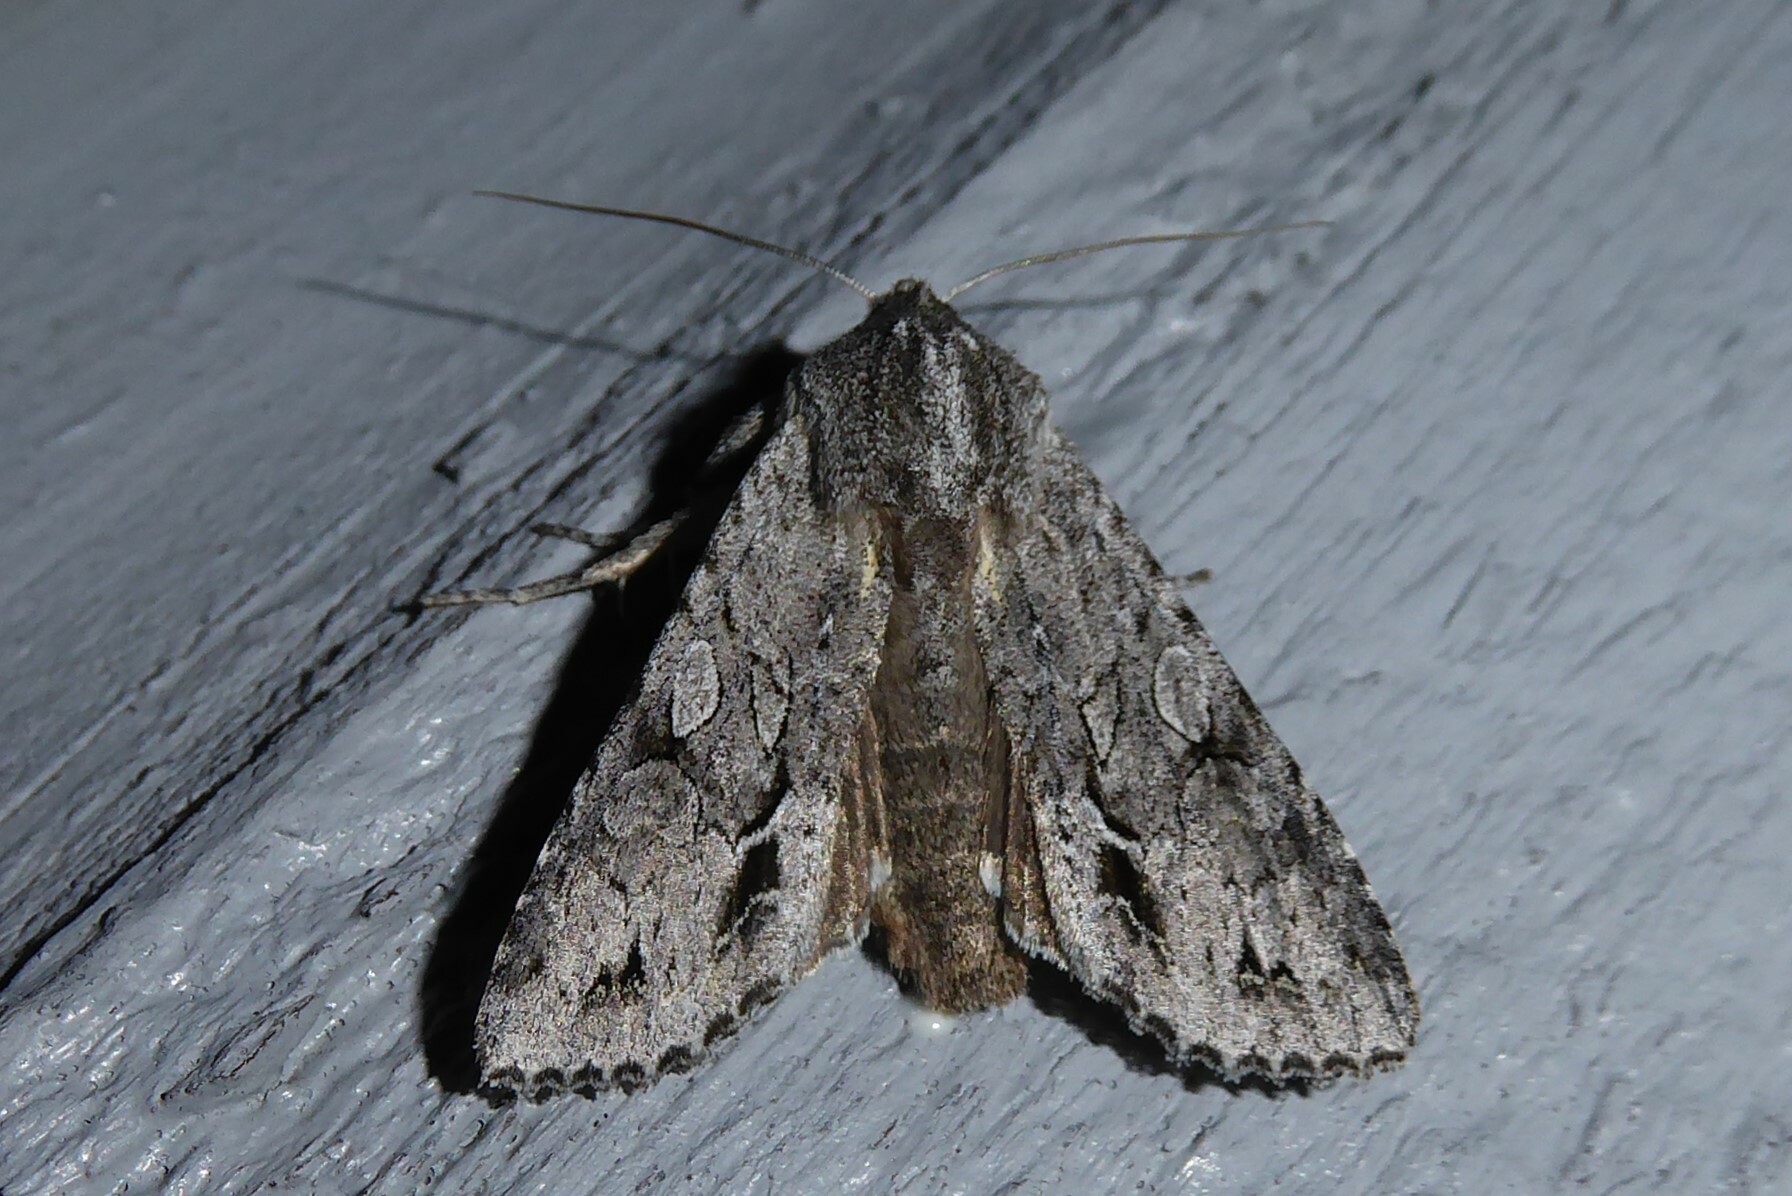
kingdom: Animalia
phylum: Arthropoda
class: Insecta
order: Lepidoptera
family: Noctuidae
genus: Ichneutica
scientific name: Ichneutica
